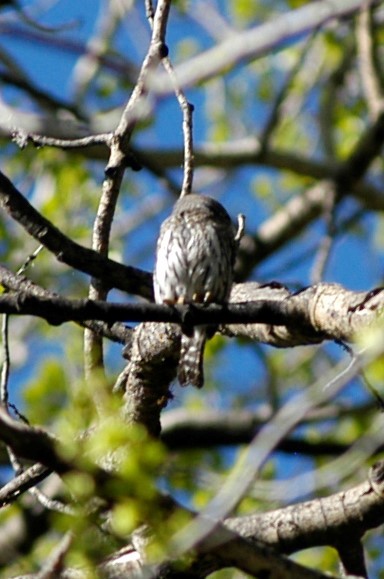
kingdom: Animalia
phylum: Chordata
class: Aves
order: Strigiformes
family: Strigidae
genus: Glaucidium
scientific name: Glaucidium gnoma
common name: Northern pygmy-owl
